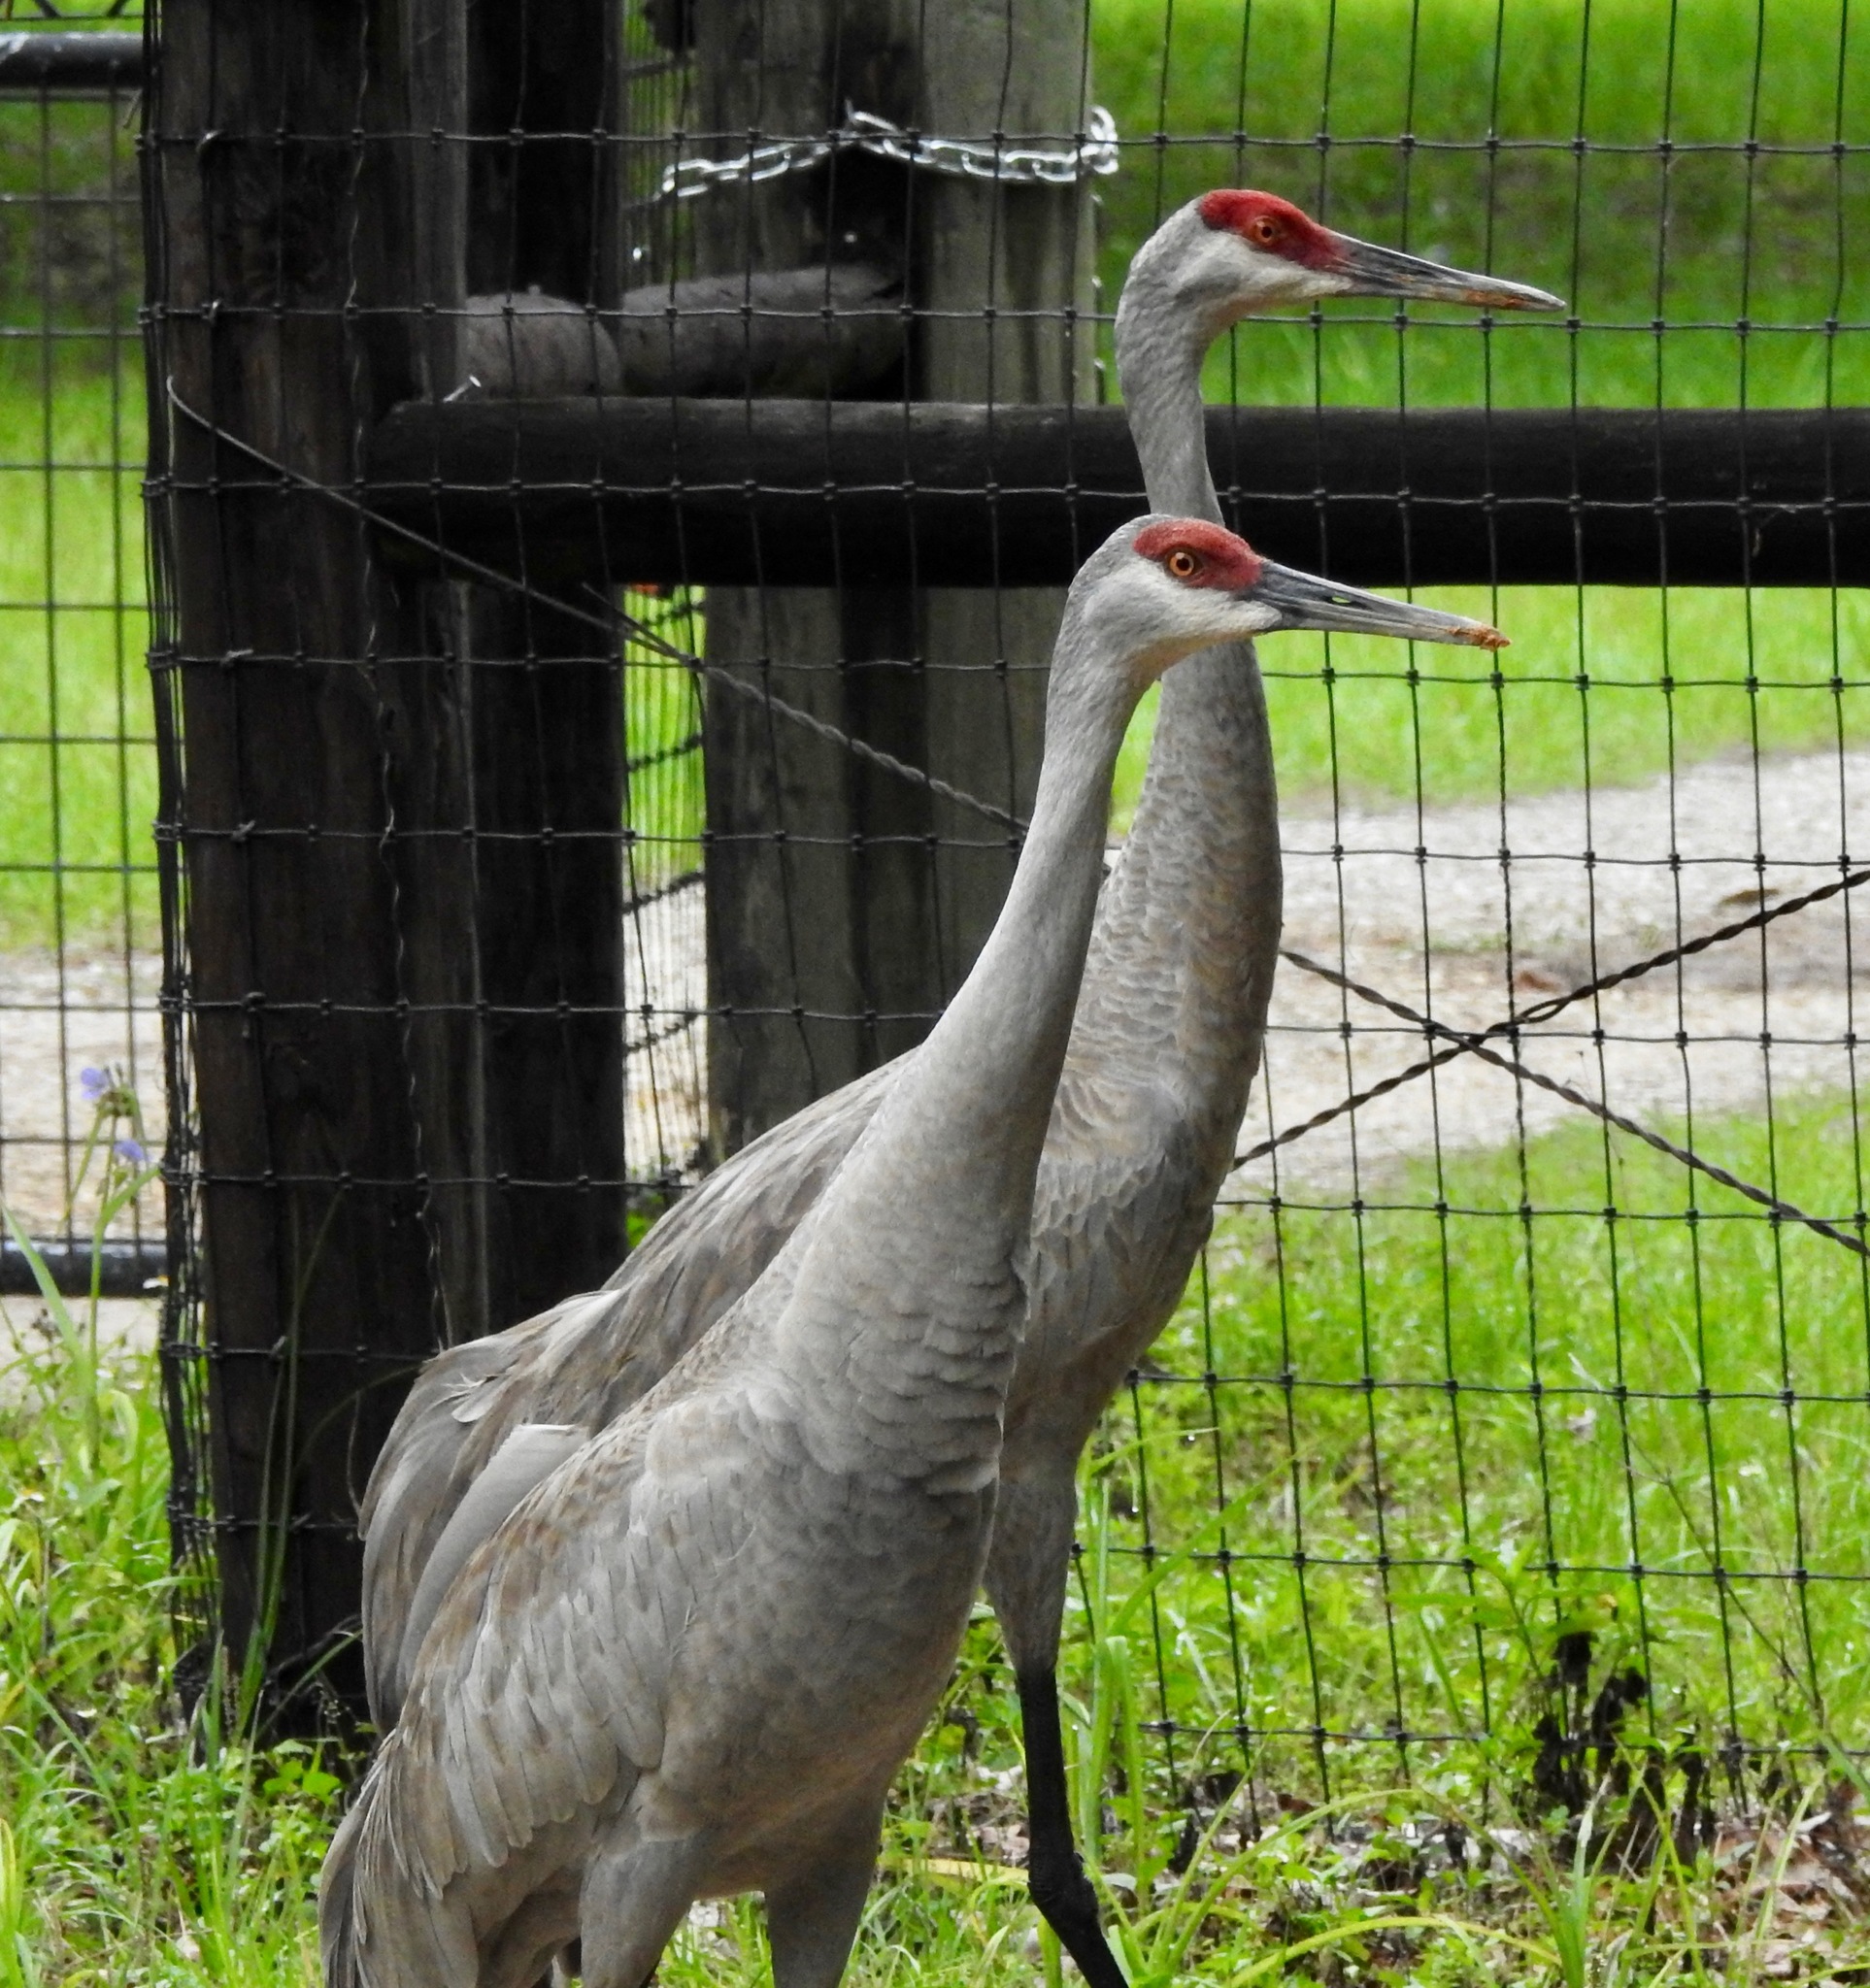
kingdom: Animalia
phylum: Chordata
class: Aves
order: Gruiformes
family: Gruidae
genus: Grus
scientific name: Grus canadensis
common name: Sandhill crane
